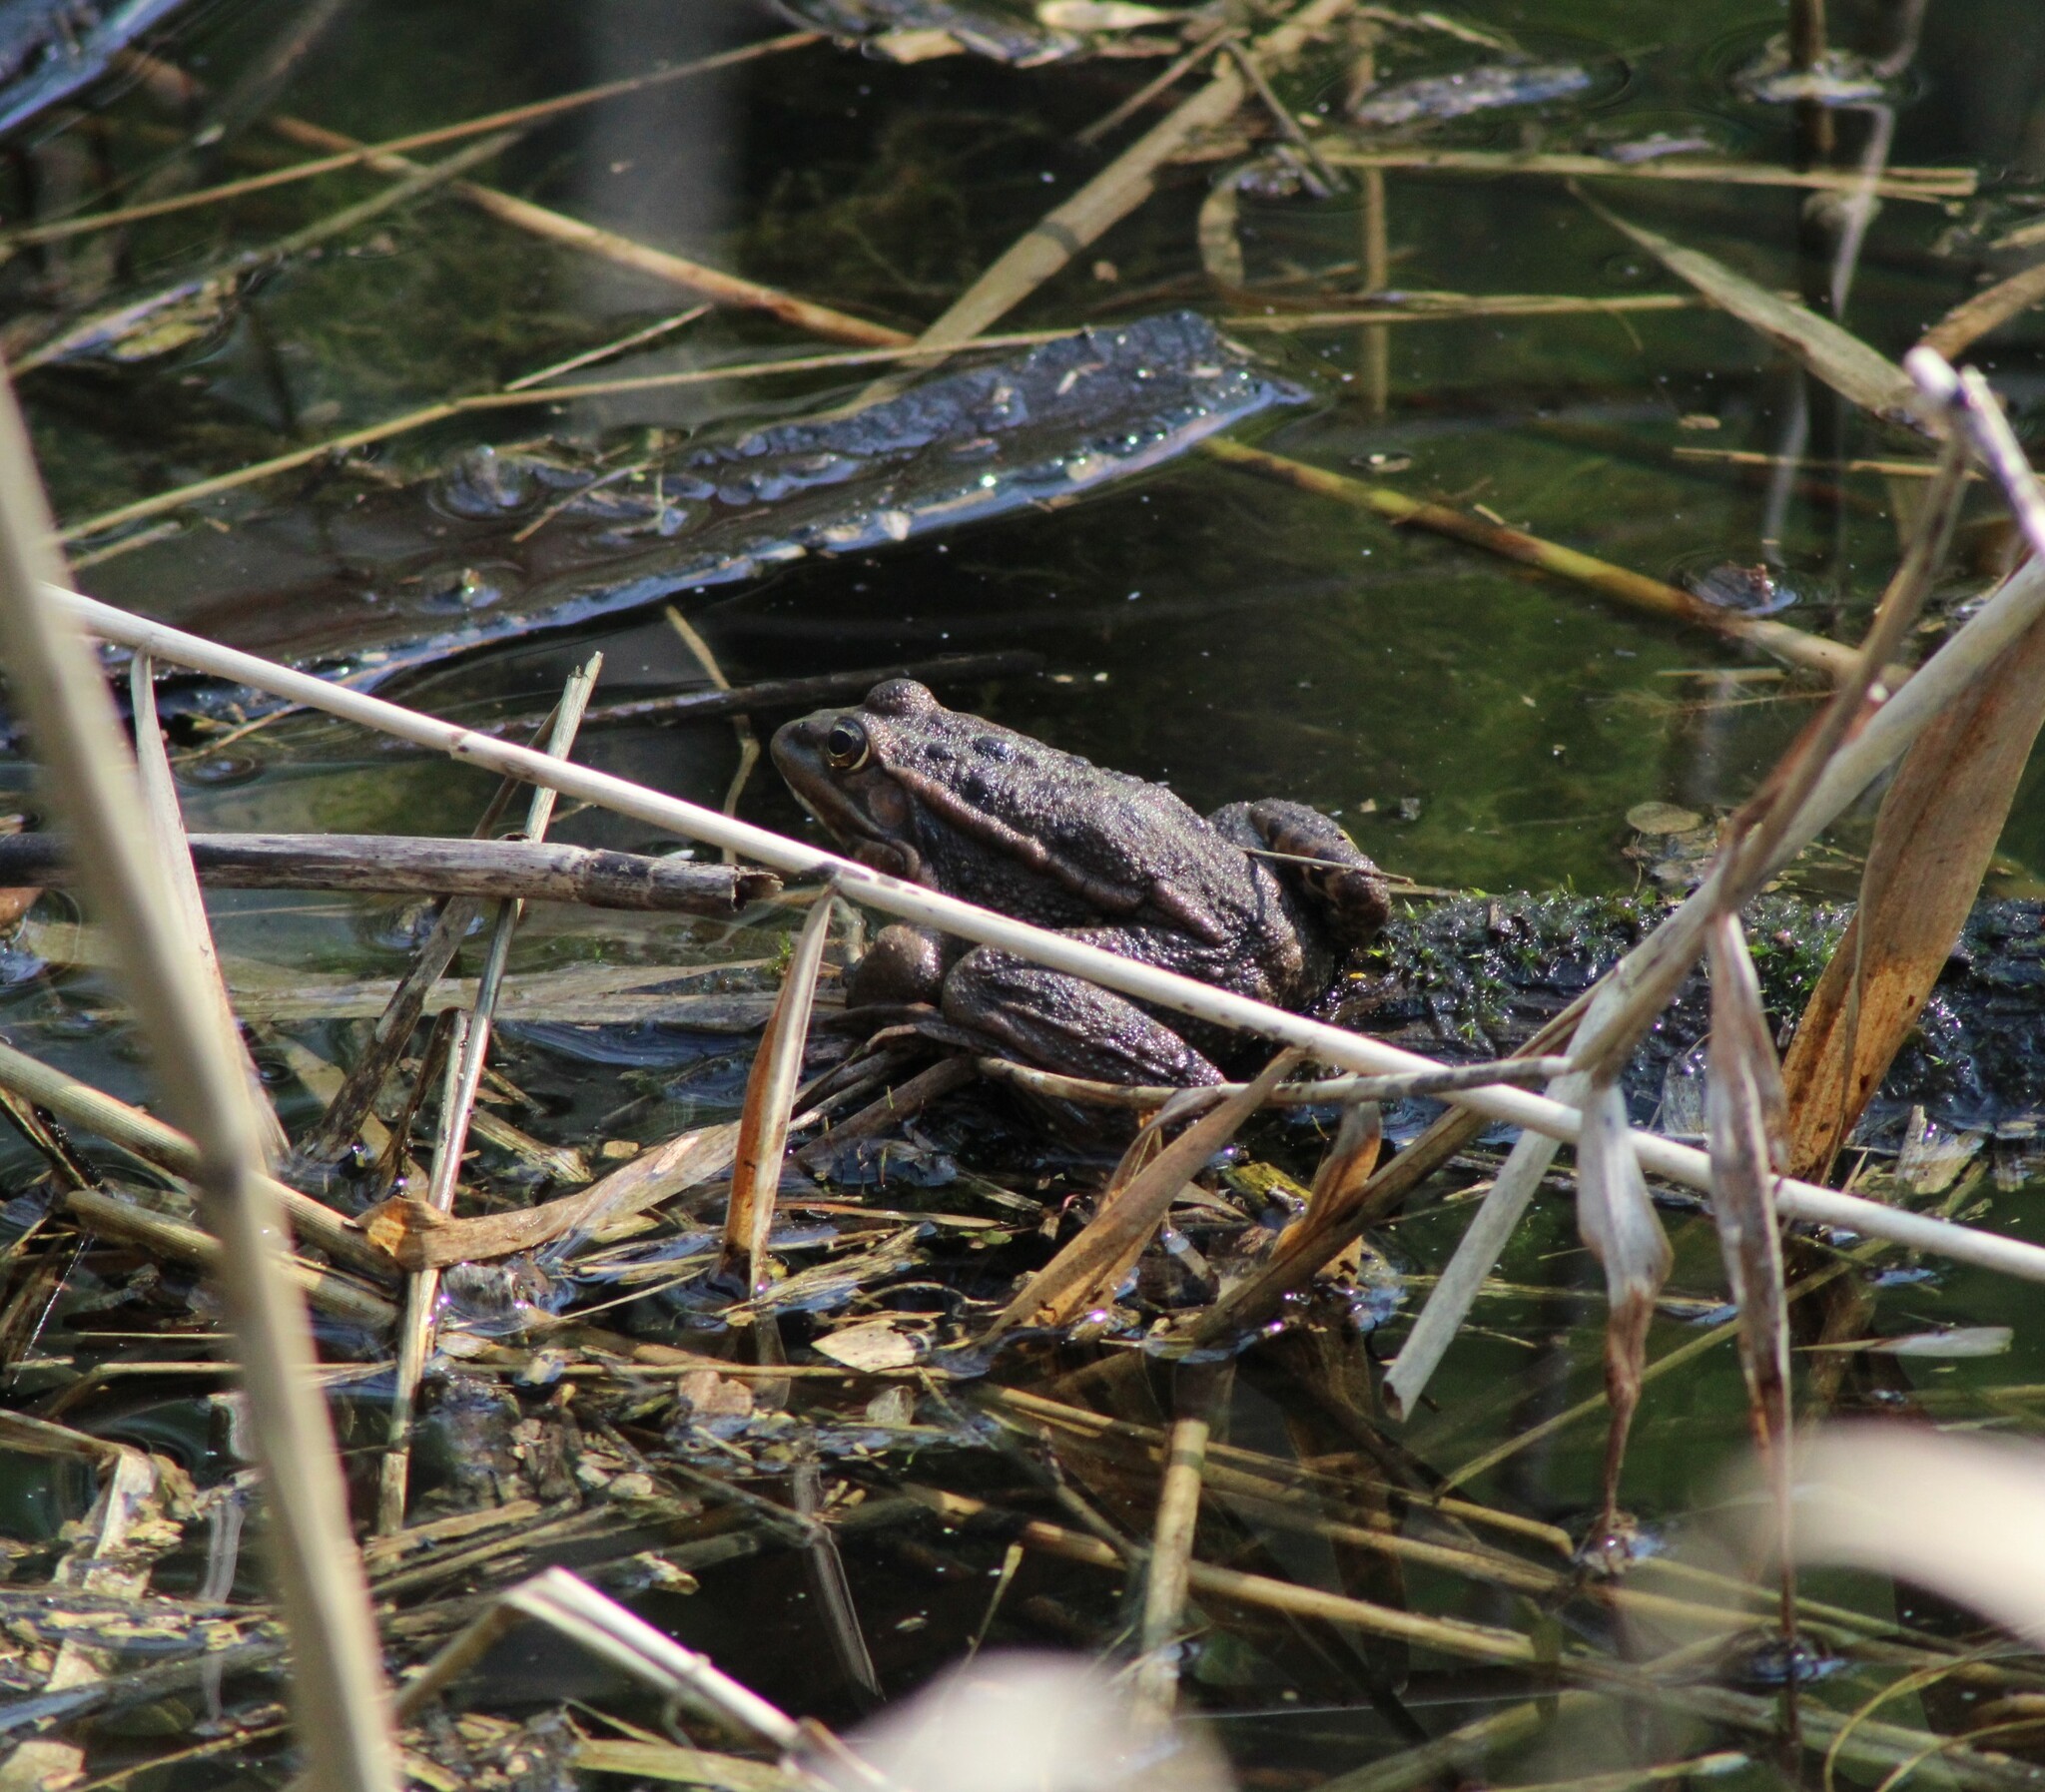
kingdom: Animalia
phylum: Chordata
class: Amphibia
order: Anura
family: Ranidae
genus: Pelophylax
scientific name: Pelophylax
